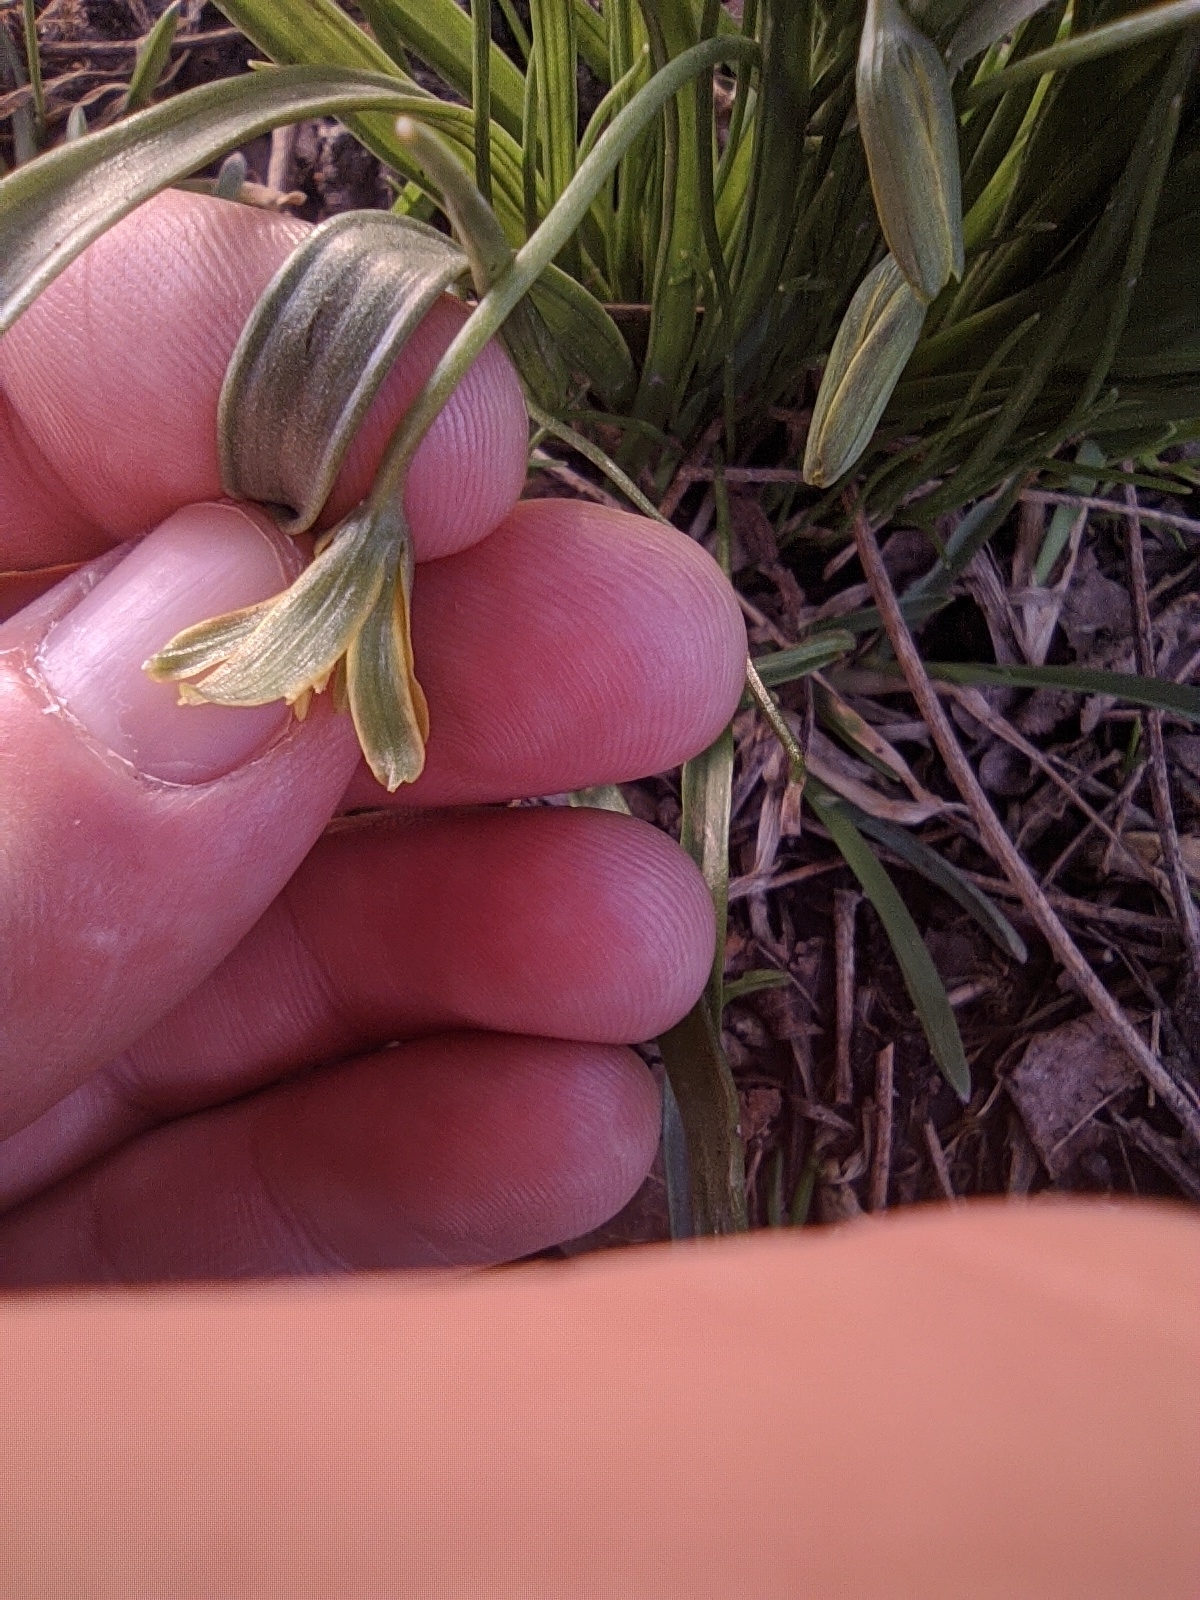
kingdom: Plantae
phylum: Tracheophyta
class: Liliopsida
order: Liliales
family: Liliaceae
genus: Gagea
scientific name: Gagea lutea
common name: Yellow star-of-bethlehem
